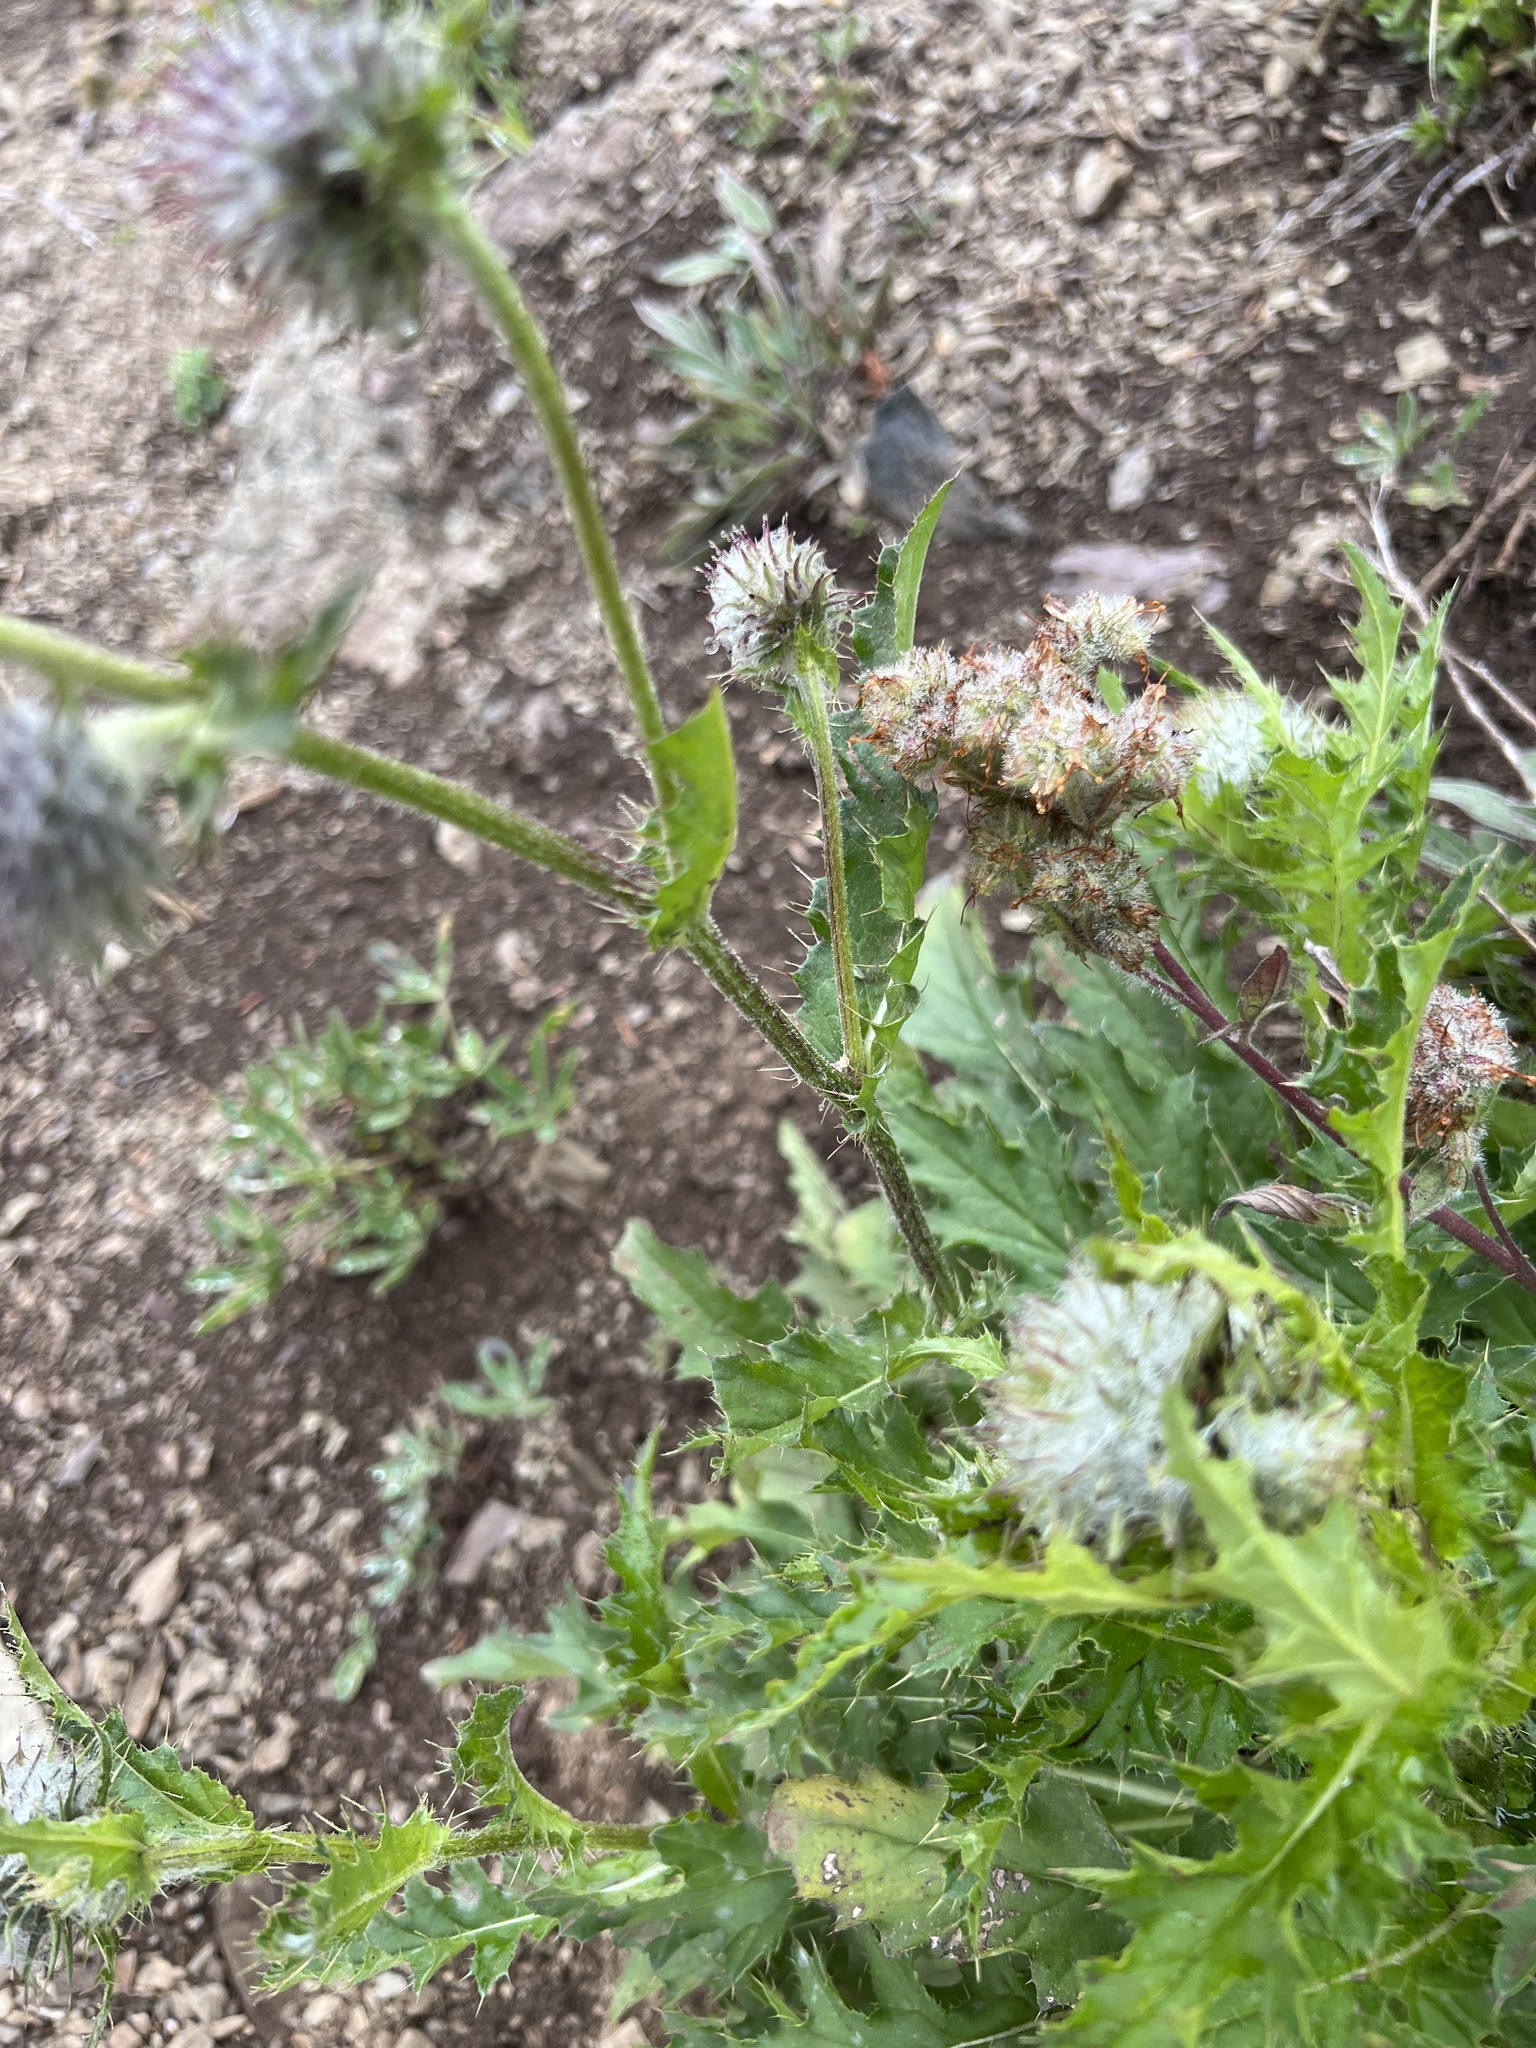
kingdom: Plantae
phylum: Tracheophyta
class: Magnoliopsida
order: Asterales
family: Asteraceae
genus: Cirsium
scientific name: Cirsium edule
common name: Indian thistle
